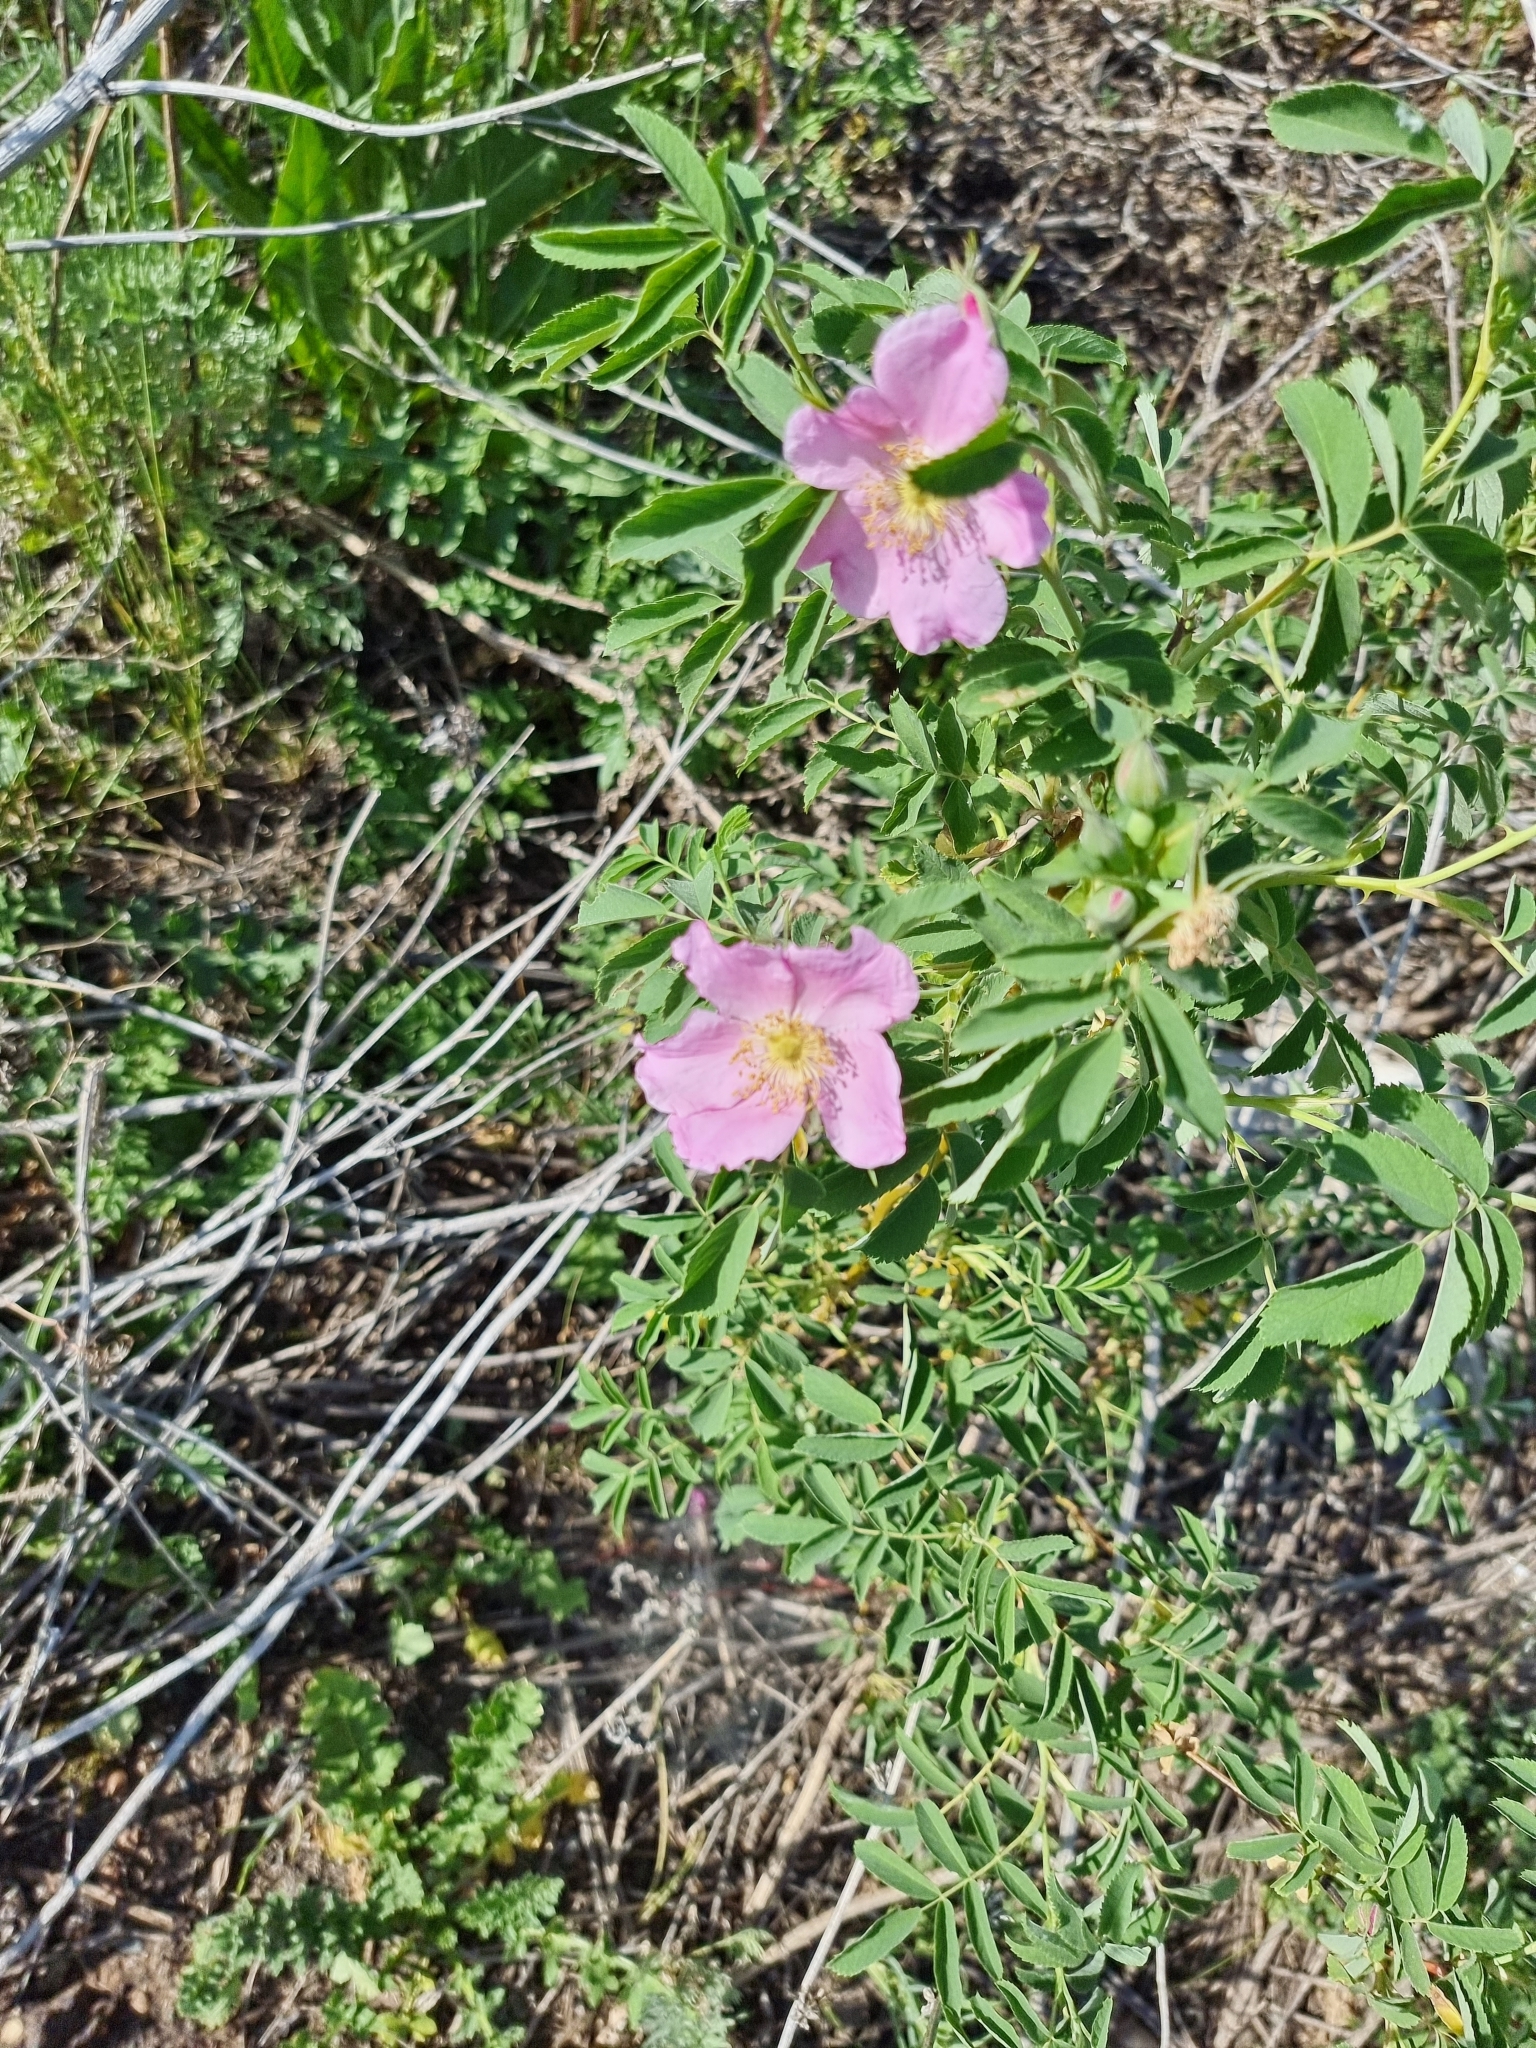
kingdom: Plantae
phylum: Tracheophyta
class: Magnoliopsida
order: Rosales
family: Rosaceae
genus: Rosa
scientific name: Rosa
